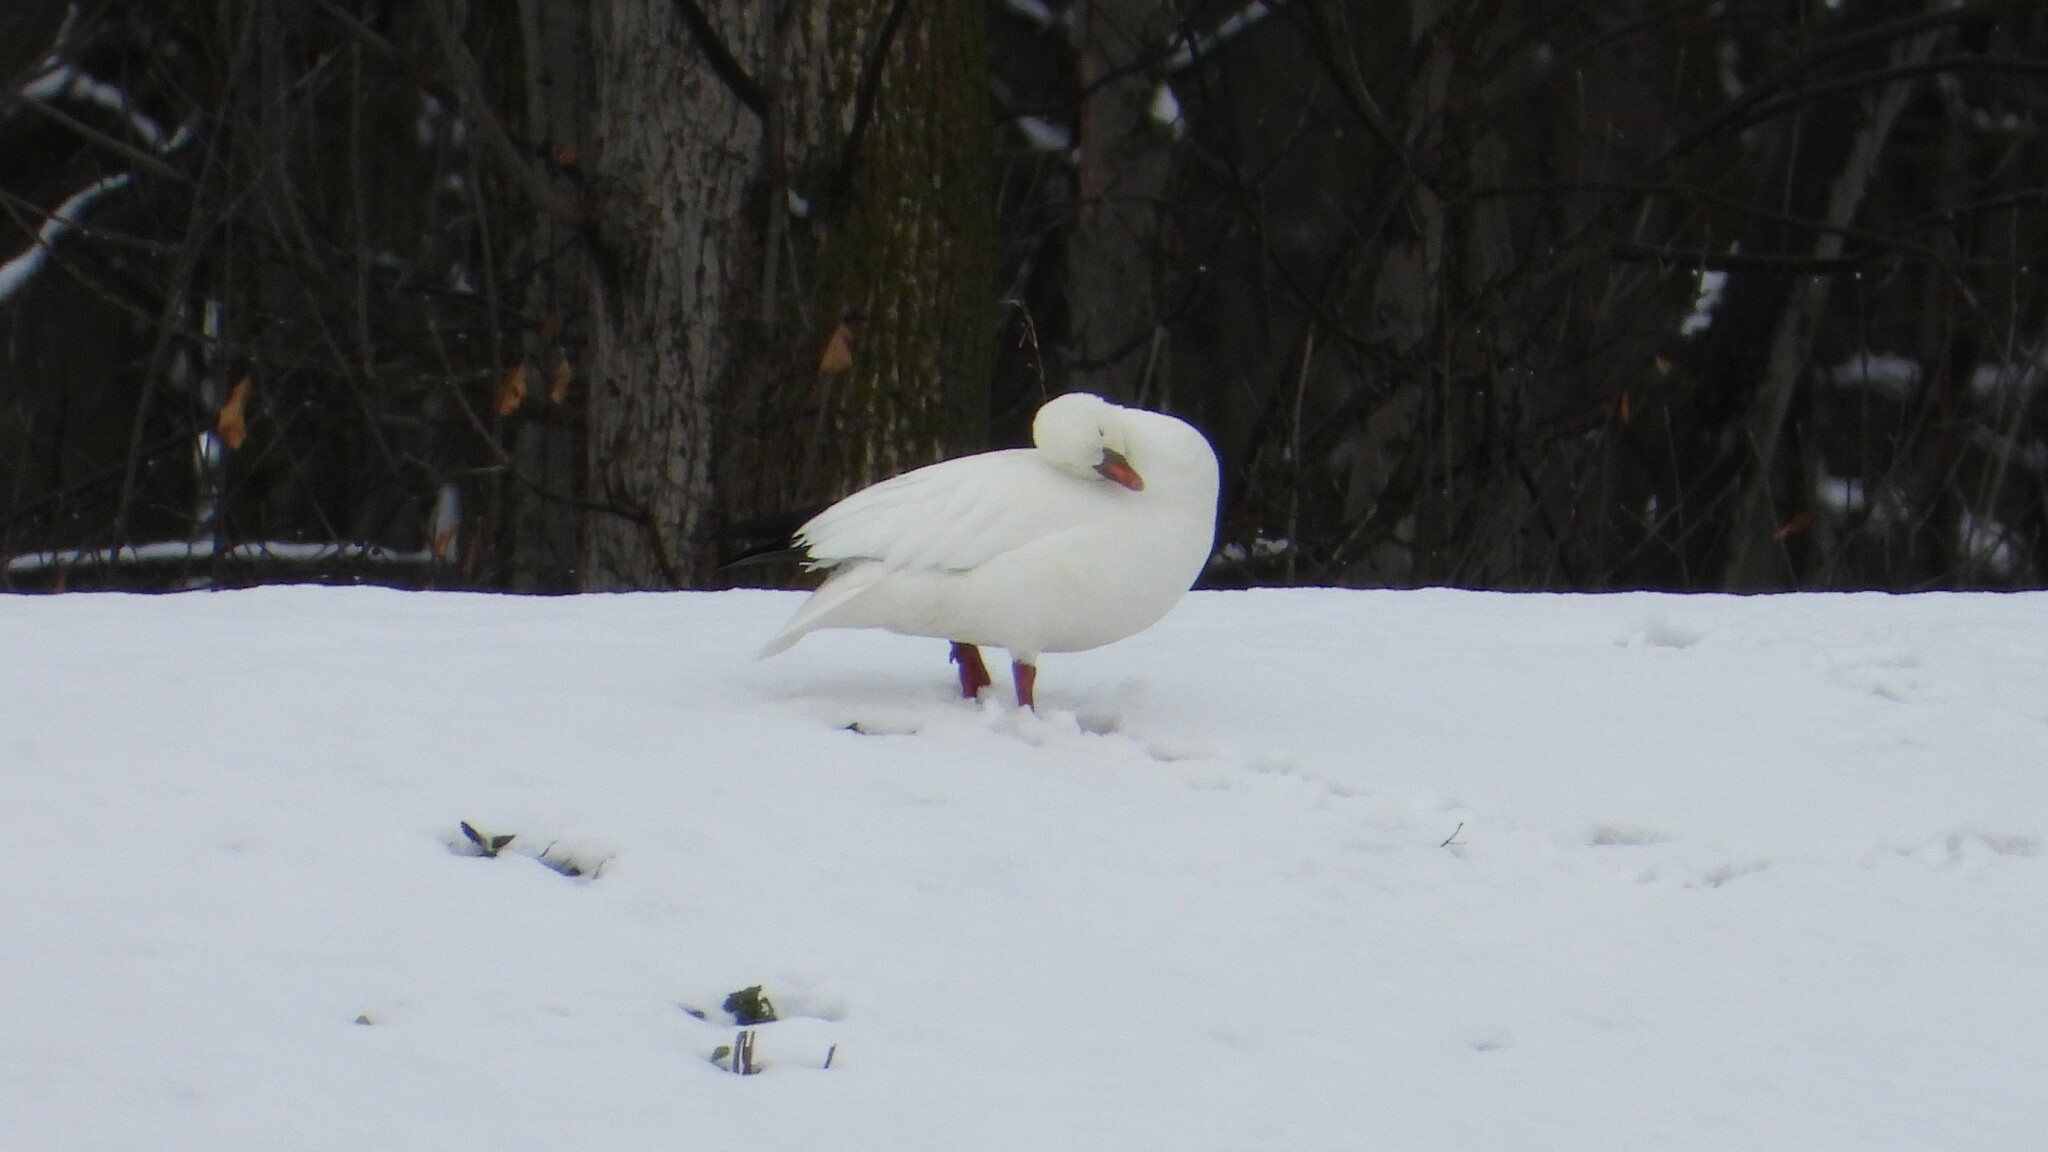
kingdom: Animalia
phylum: Chordata
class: Aves
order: Anseriformes
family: Anatidae
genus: Anser
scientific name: Anser rossii
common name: Ross's goose
